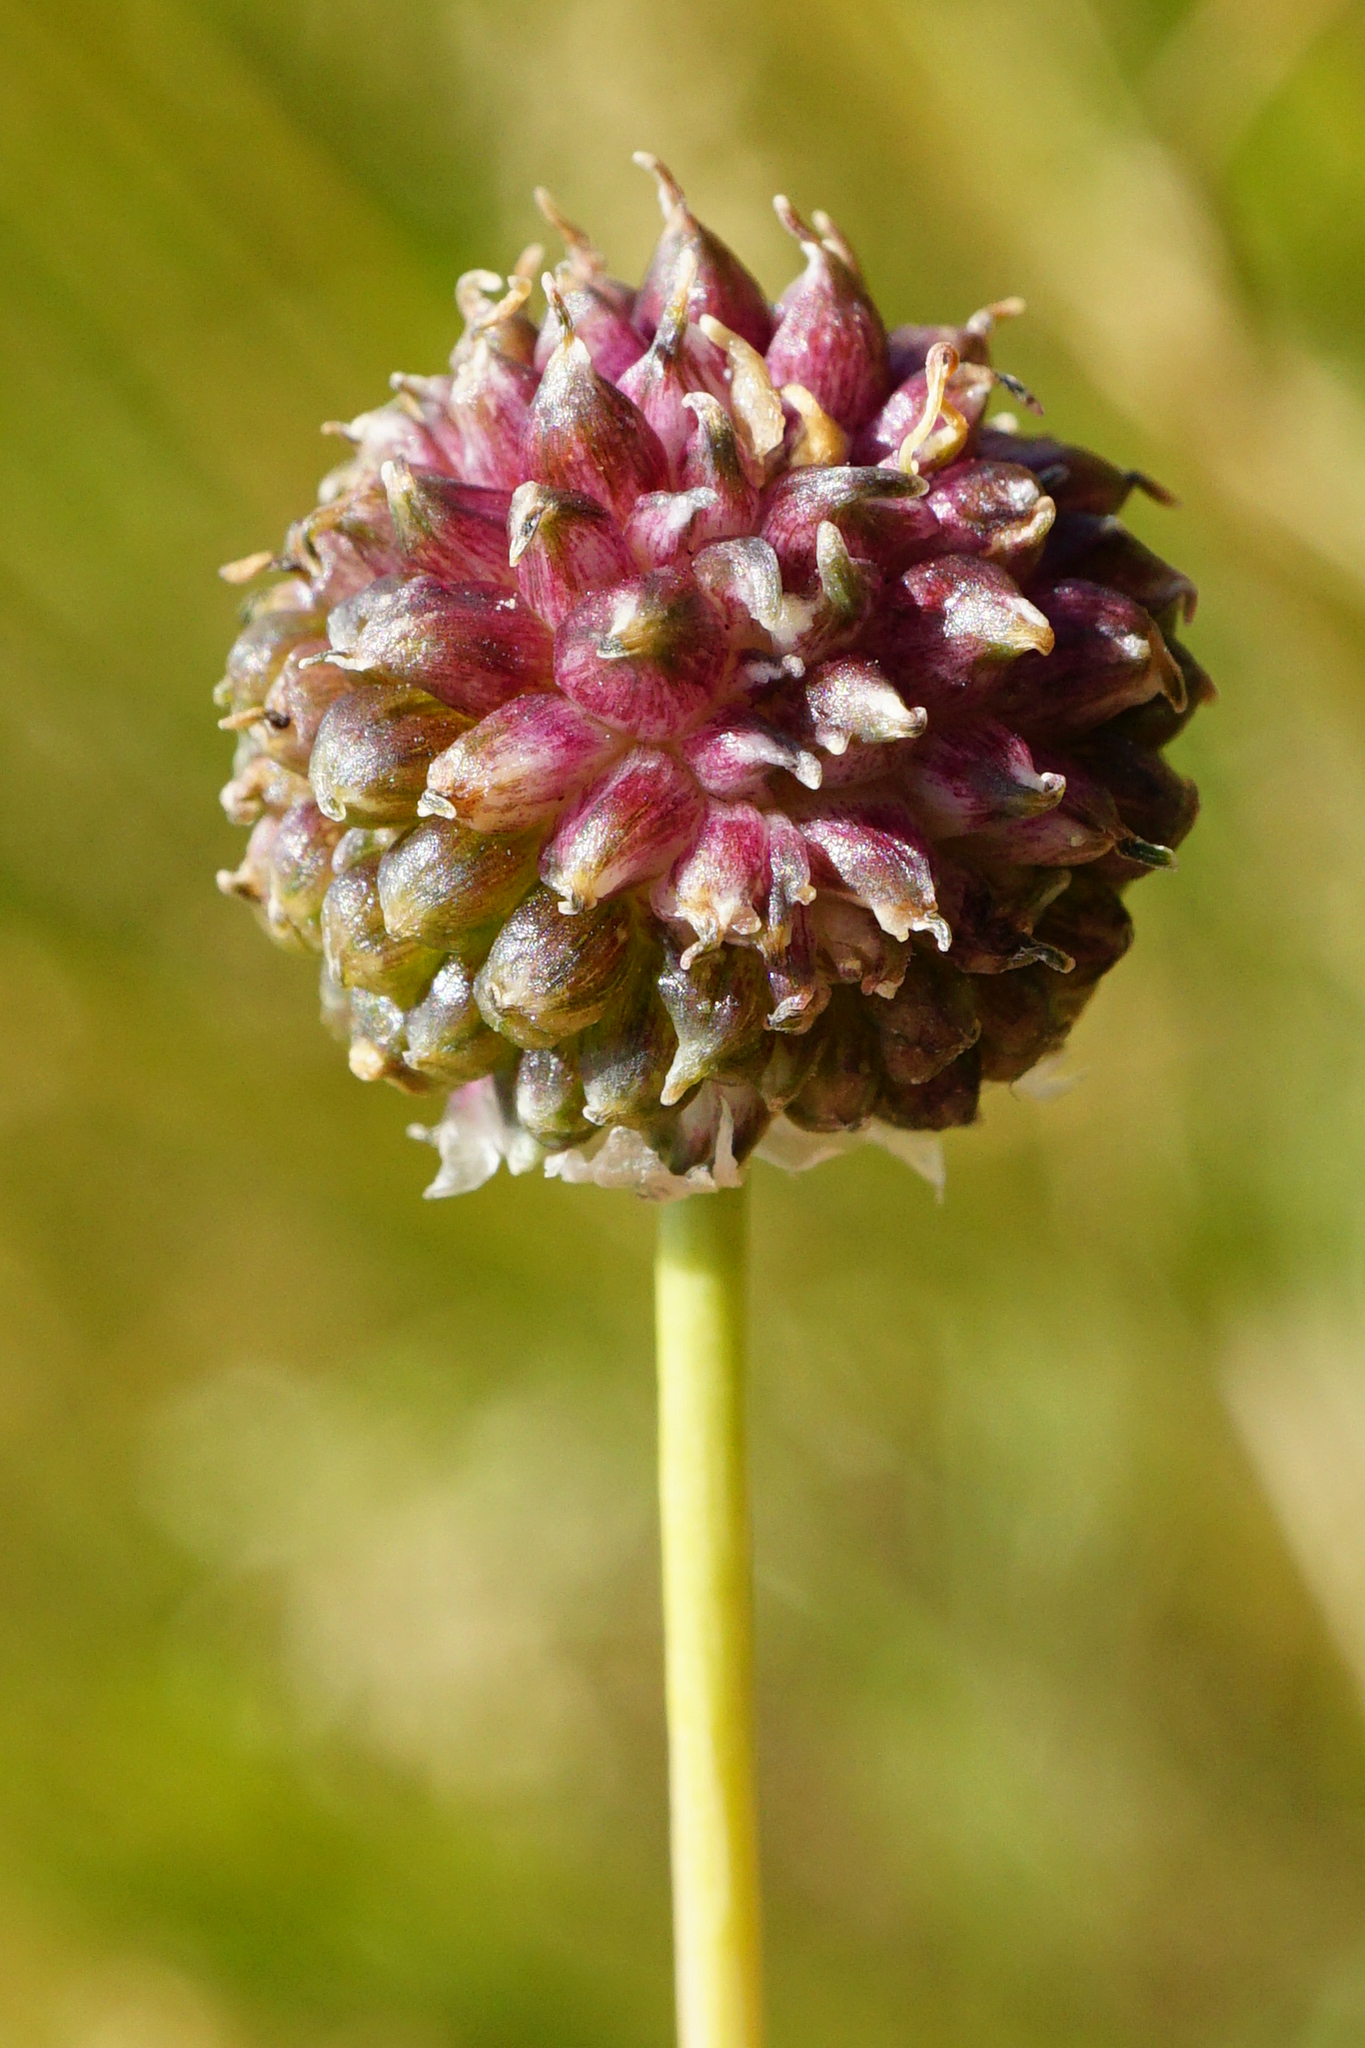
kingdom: Plantae
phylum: Tracheophyta
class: Liliopsida
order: Asparagales
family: Amaryllidaceae
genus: Allium
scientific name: Allium vineale
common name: Crow garlic
